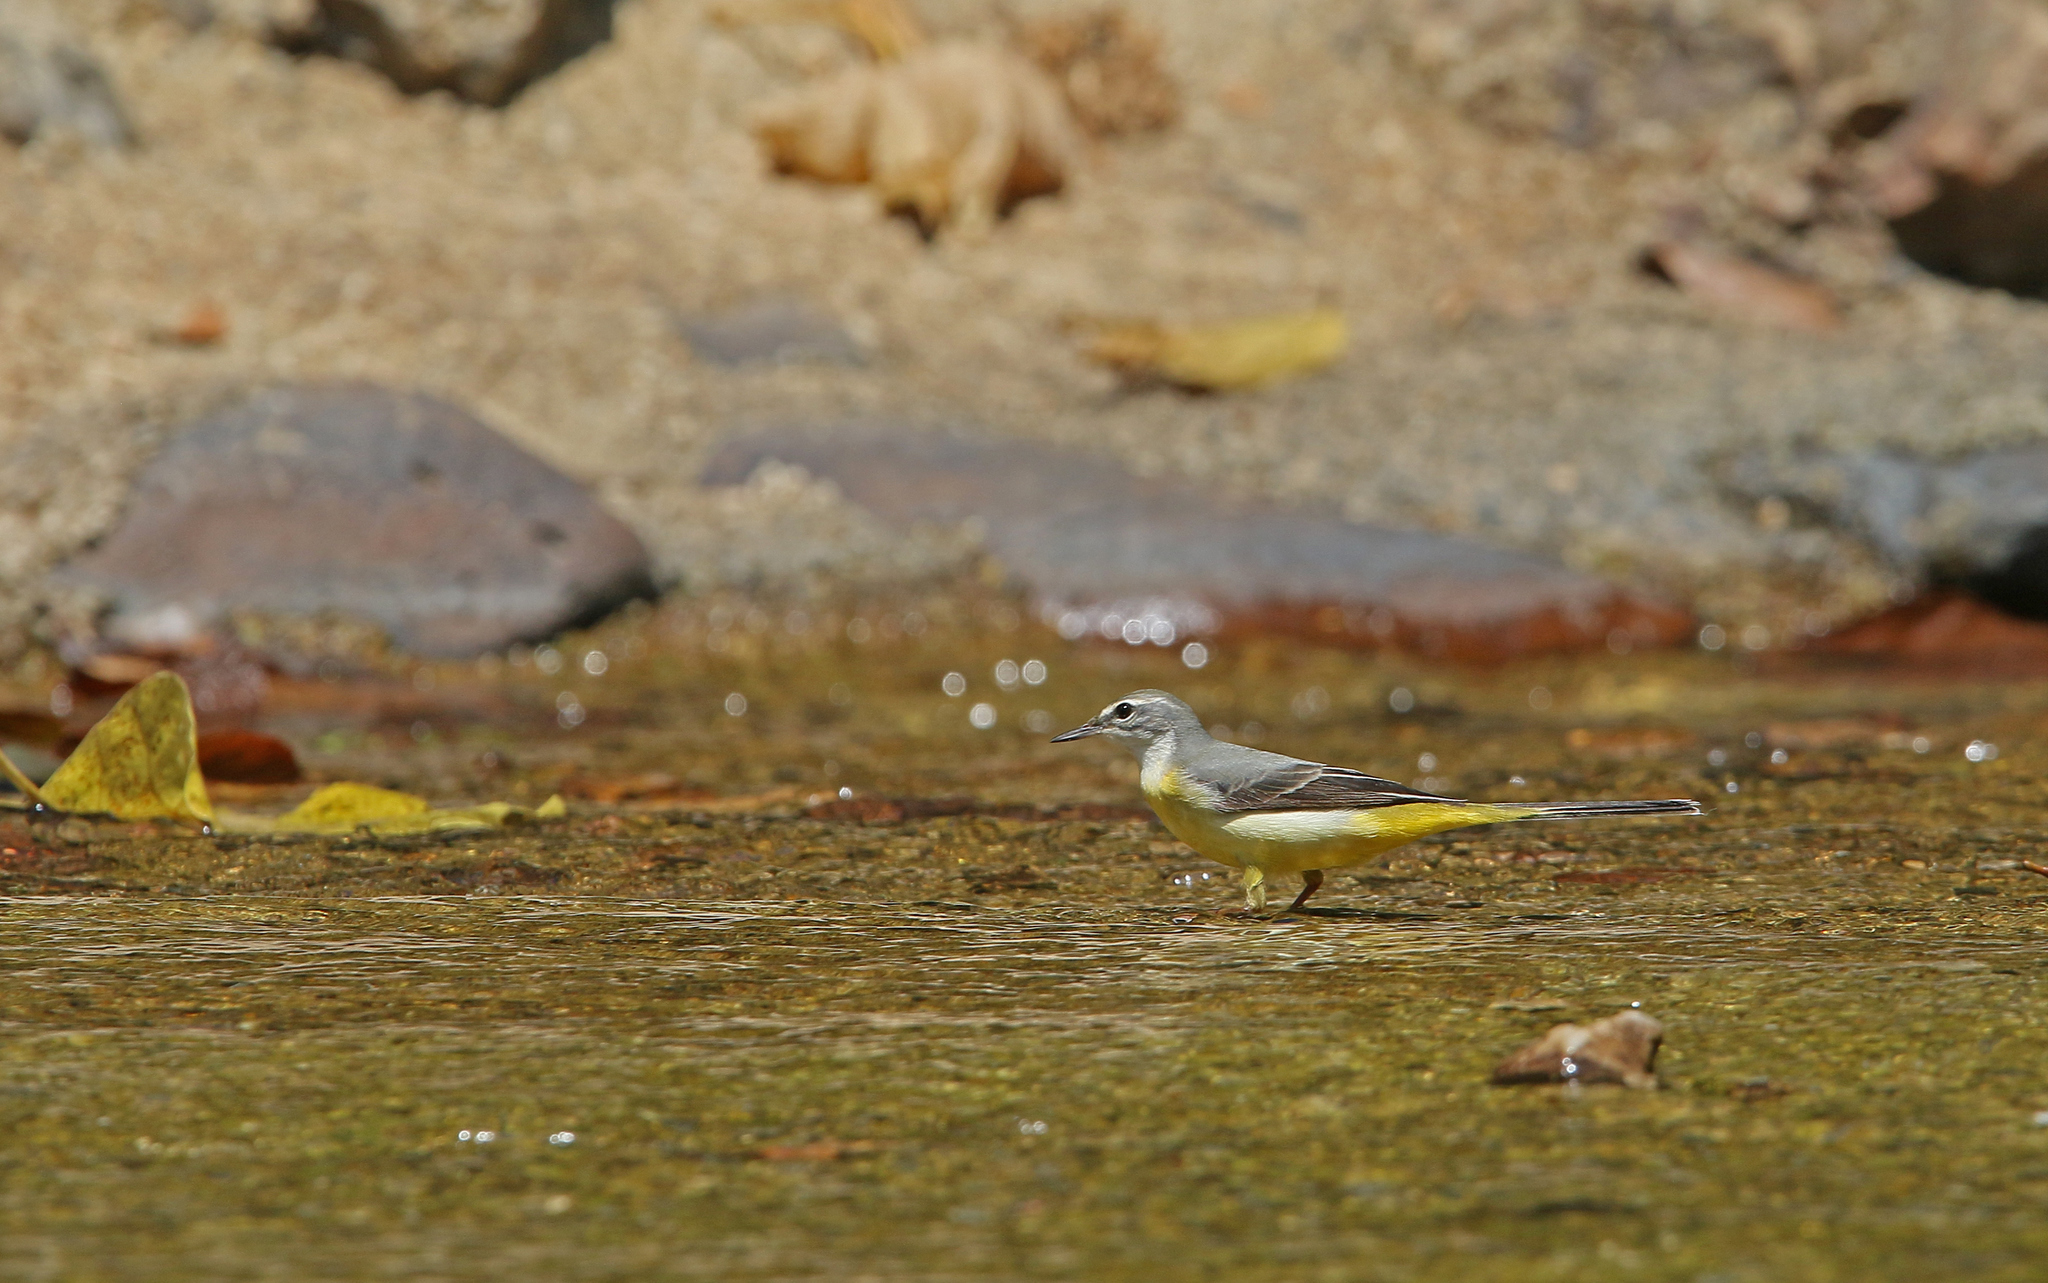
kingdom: Animalia
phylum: Chordata
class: Aves
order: Passeriformes
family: Motacillidae
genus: Motacilla
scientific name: Motacilla cinerea
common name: Grey wagtail
